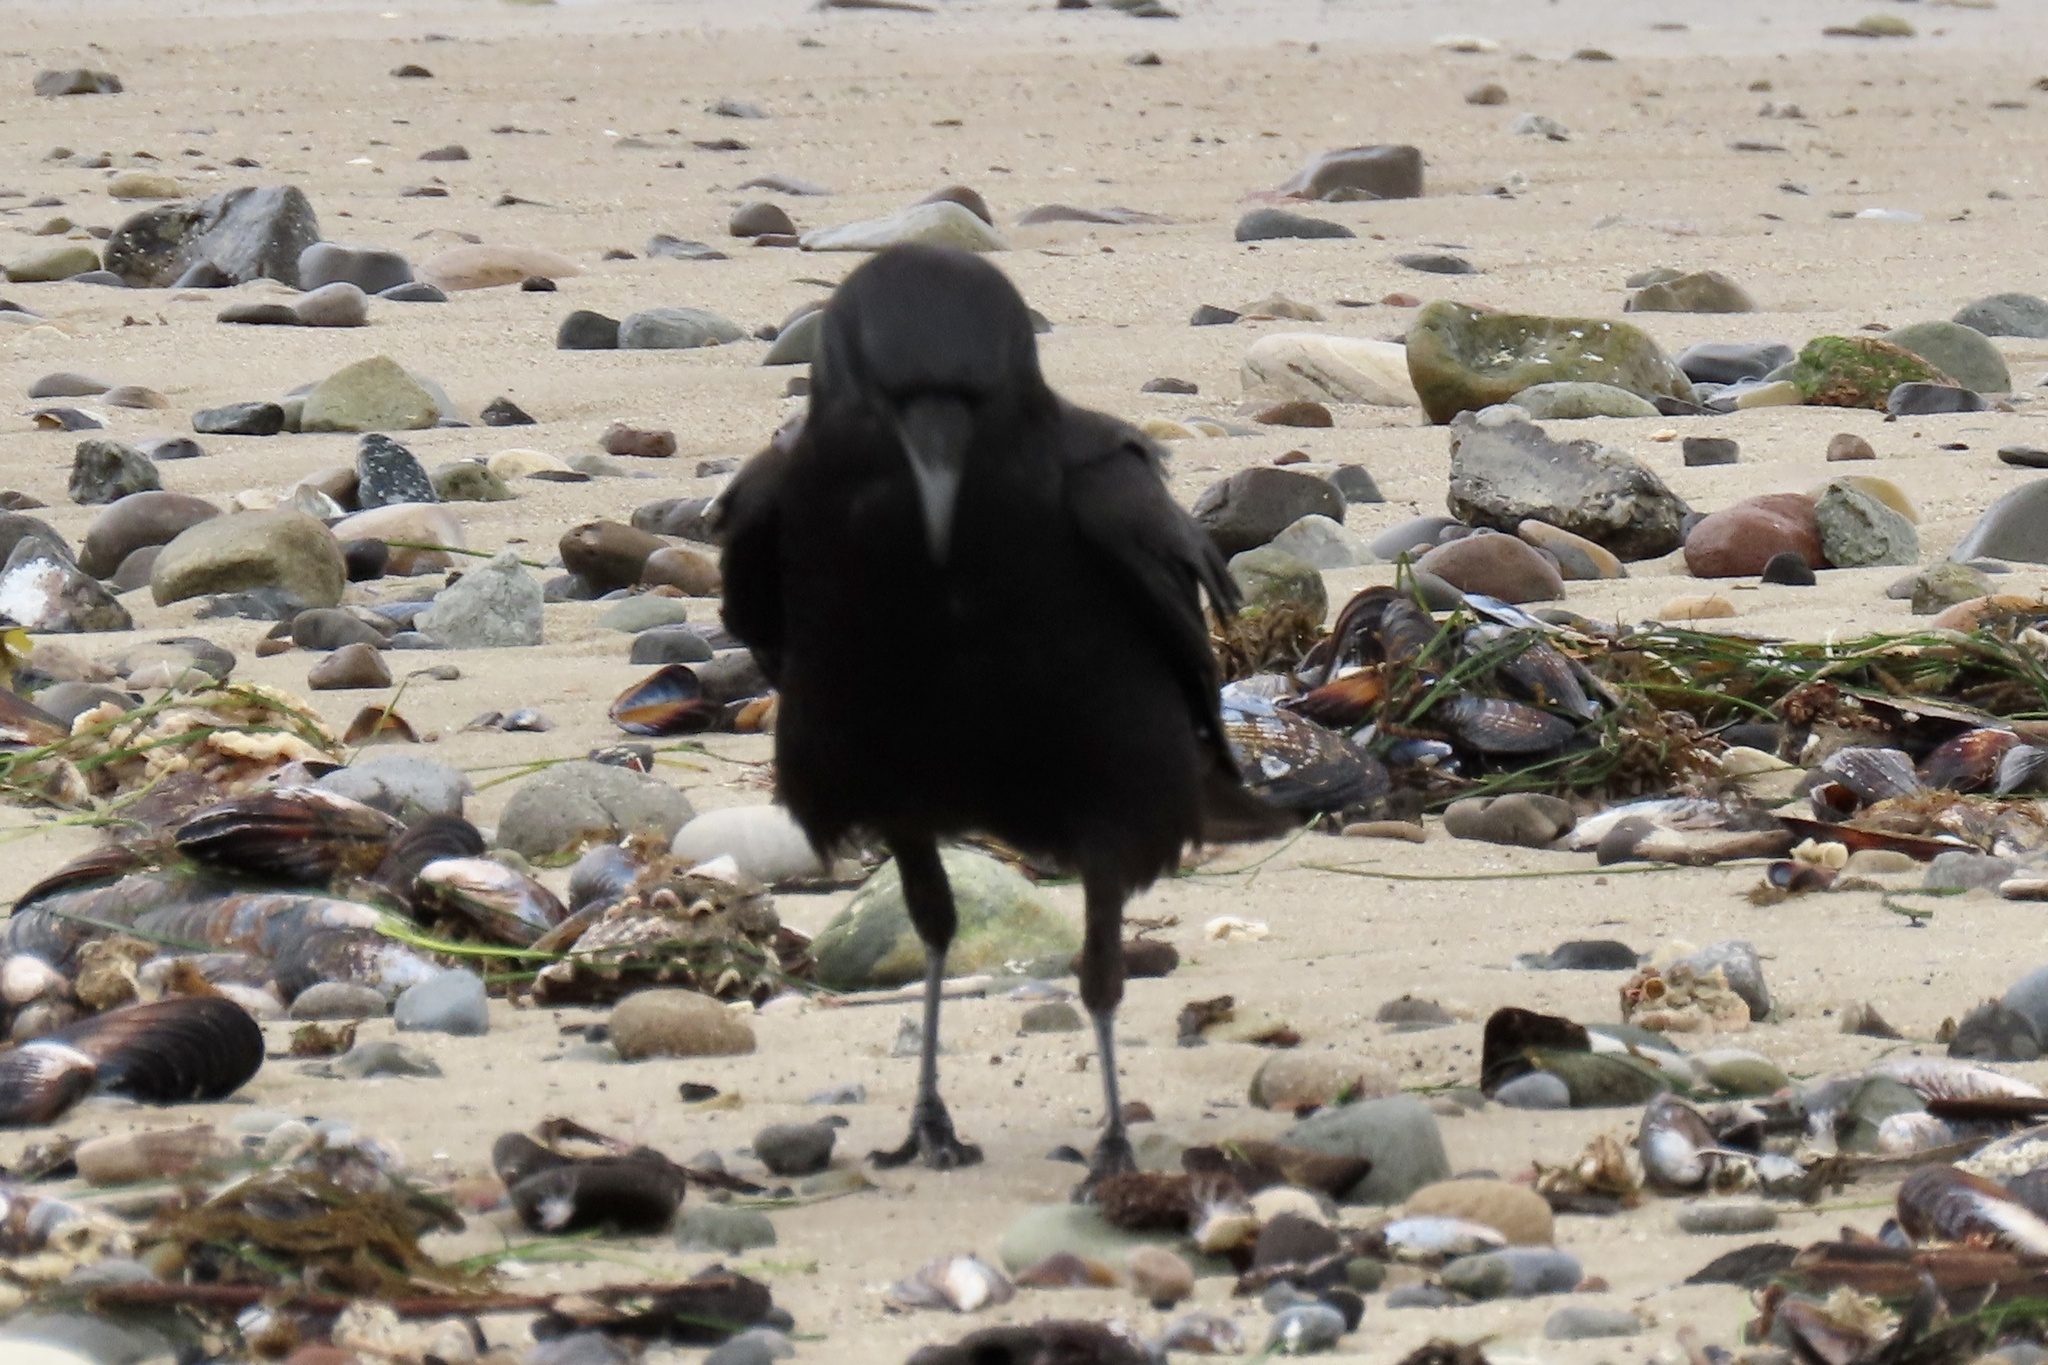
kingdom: Animalia
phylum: Chordata
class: Aves
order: Passeriformes
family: Corvidae
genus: Corvus
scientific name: Corvus brachyrhynchos
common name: American crow
